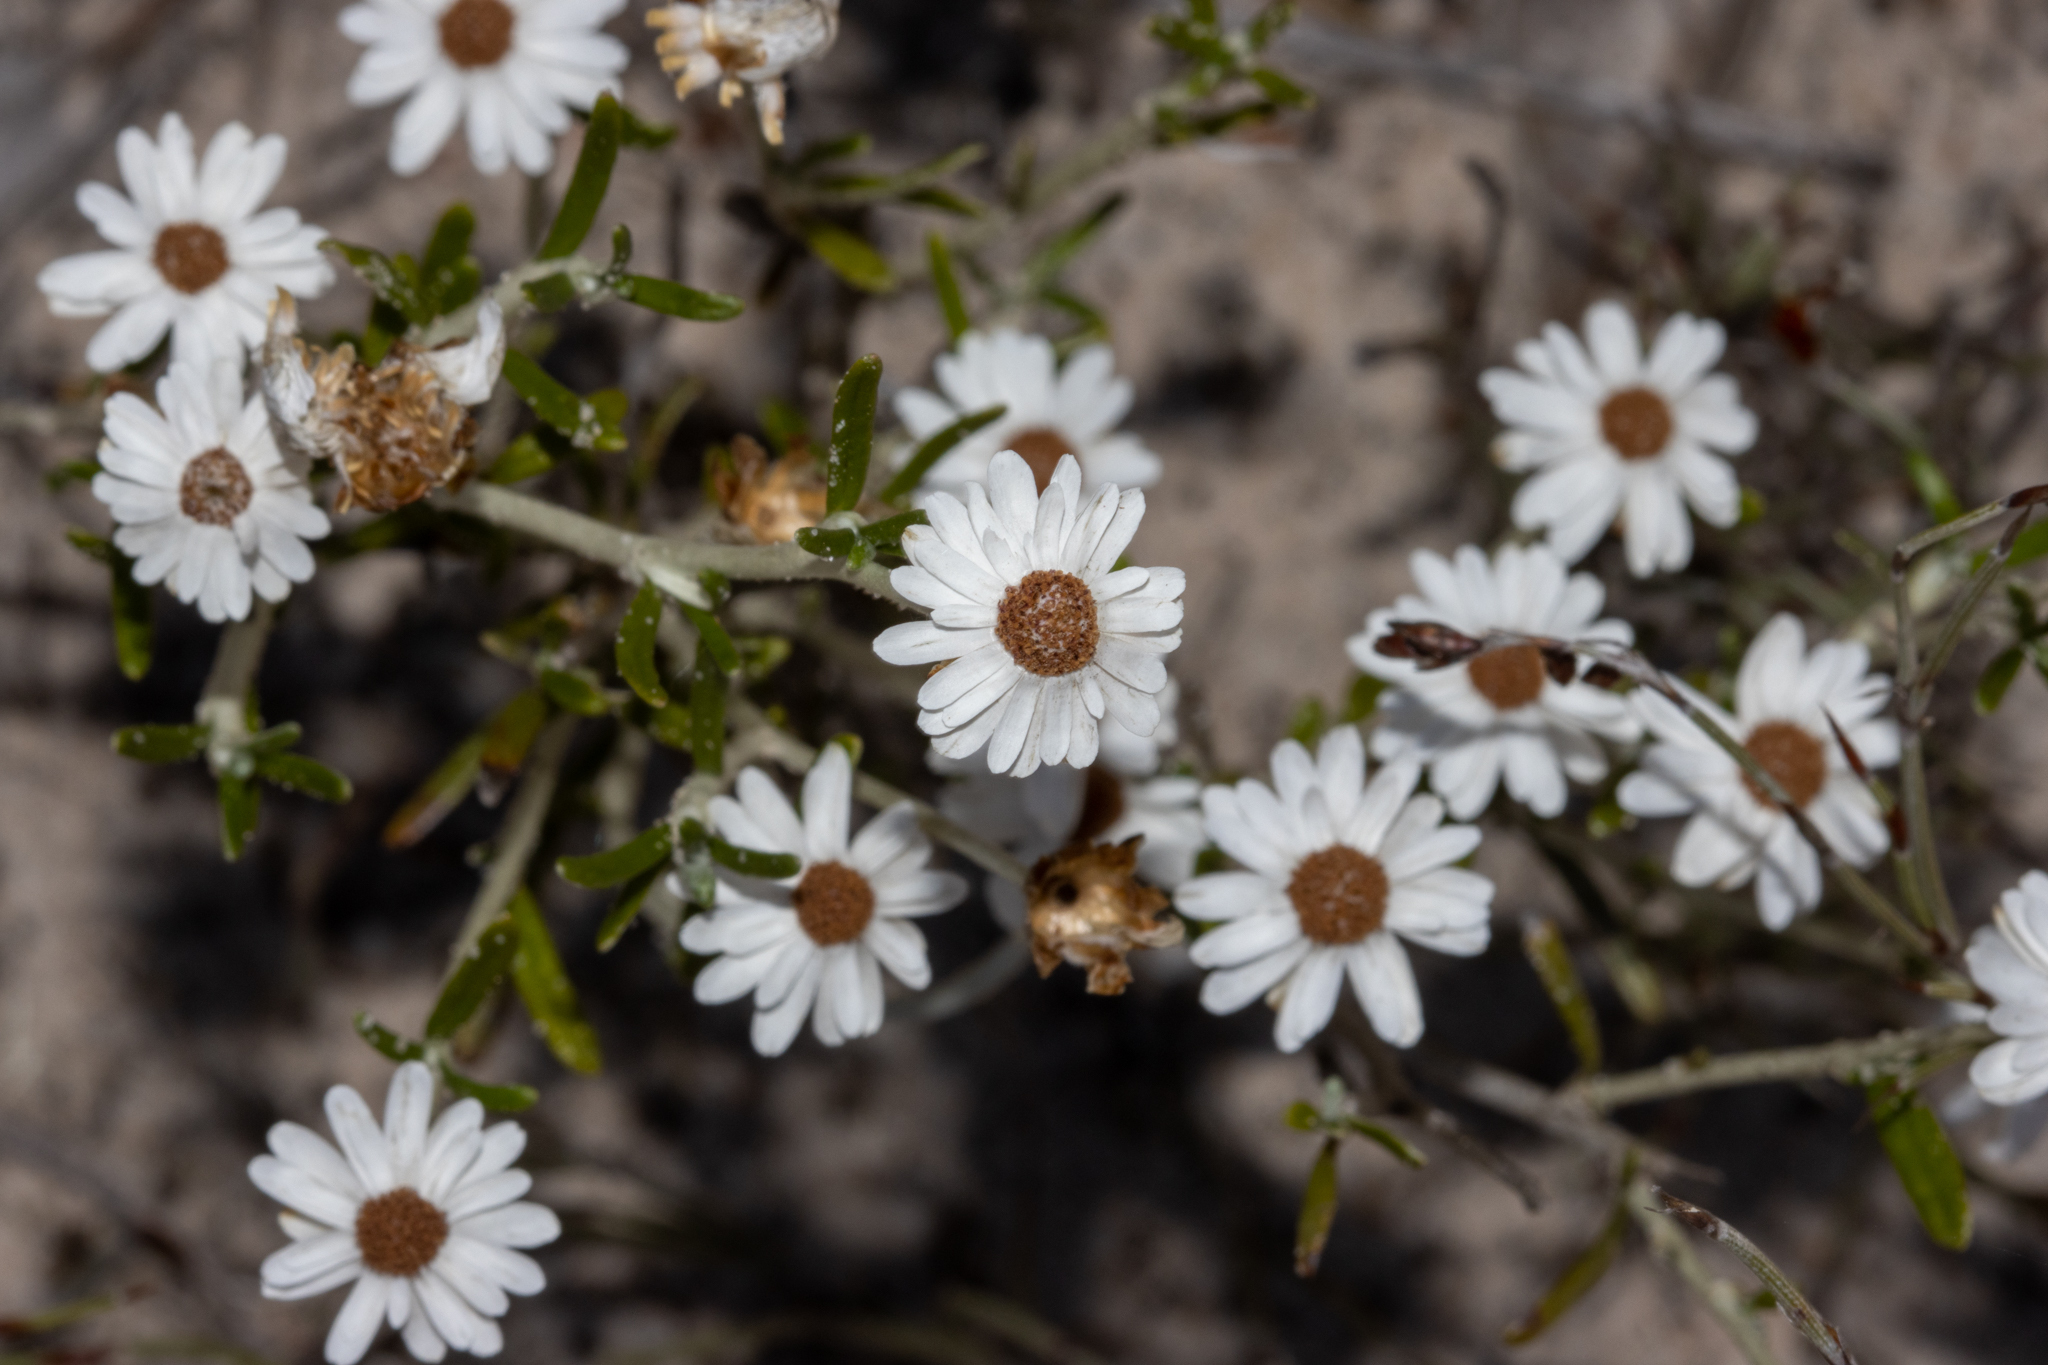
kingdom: Plantae
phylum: Tracheophyta
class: Magnoliopsida
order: Asterales
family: Asteraceae
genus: Argentipallium
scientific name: Argentipallium obtusifolium
